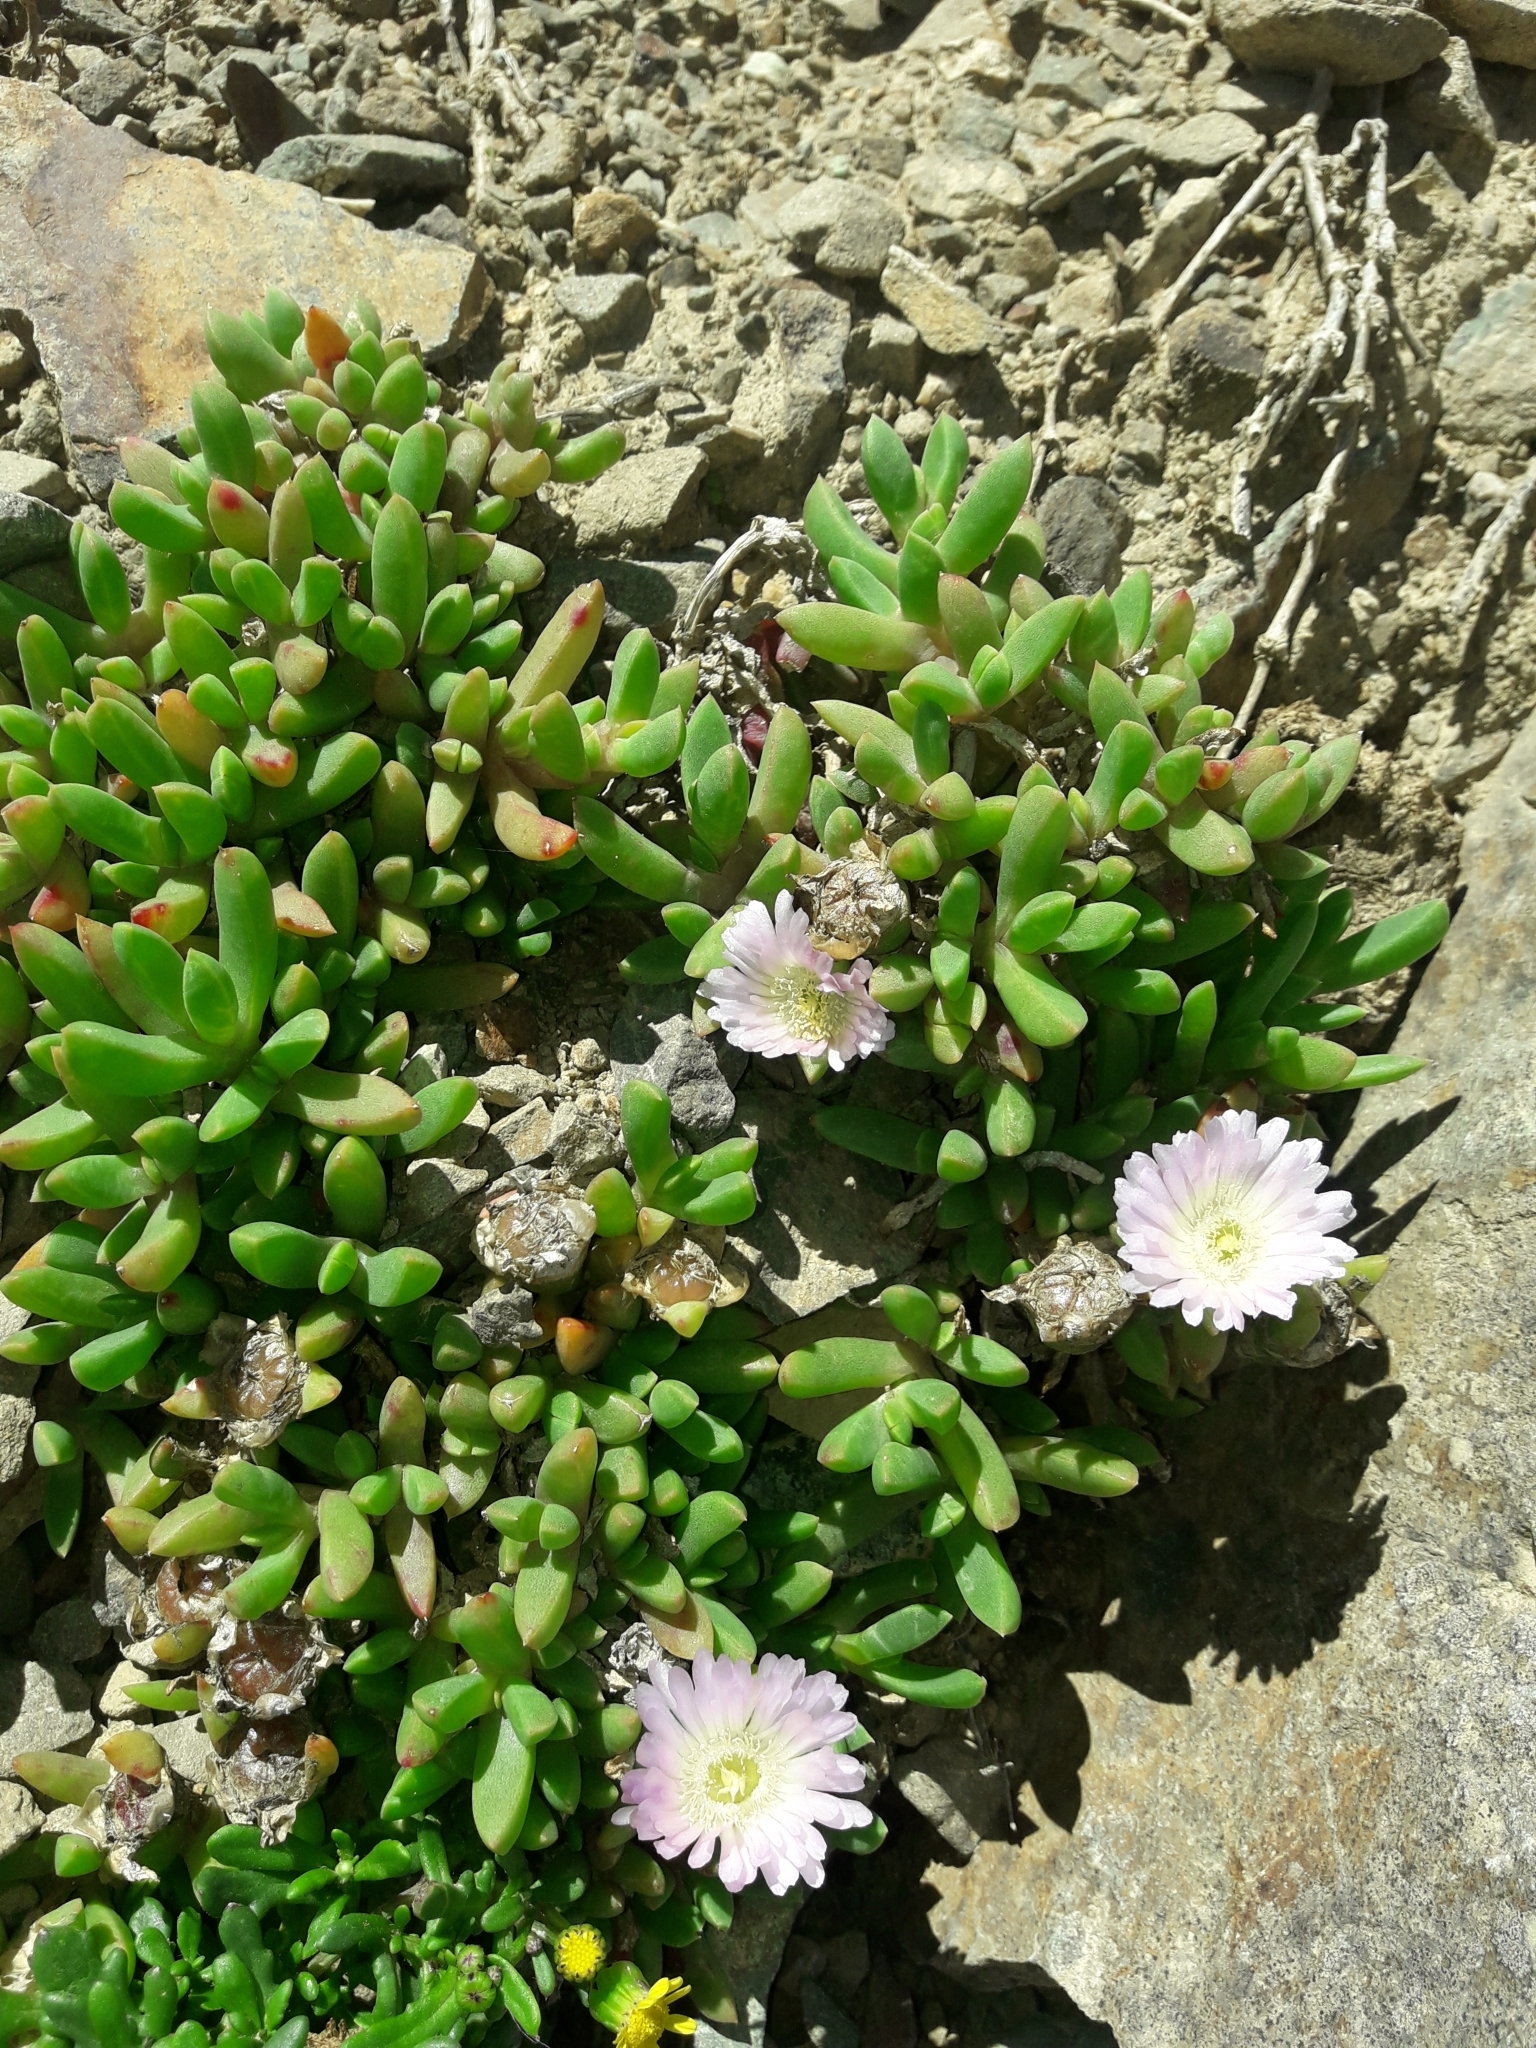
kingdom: Plantae
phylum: Tracheophyta
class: Magnoliopsida
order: Caryophyllales
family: Aizoaceae
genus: Disphyma
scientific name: Disphyma australe
